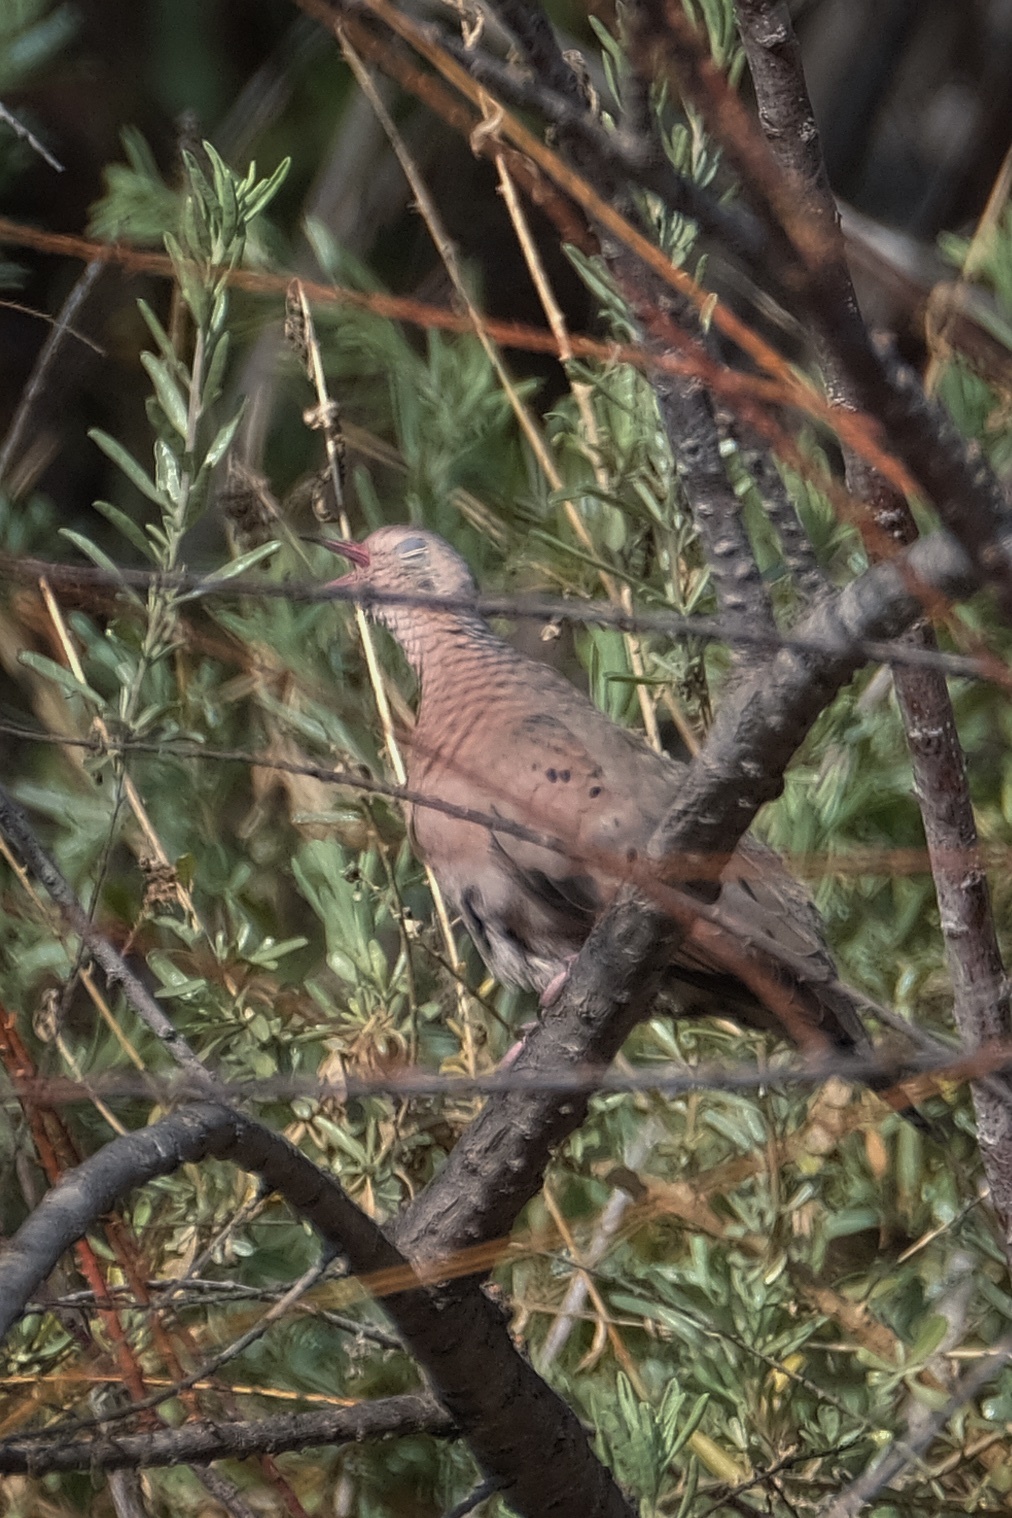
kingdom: Animalia
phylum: Chordata
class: Aves
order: Columbiformes
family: Columbidae
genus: Columbina
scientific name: Columbina passerina
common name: Common ground-dove
